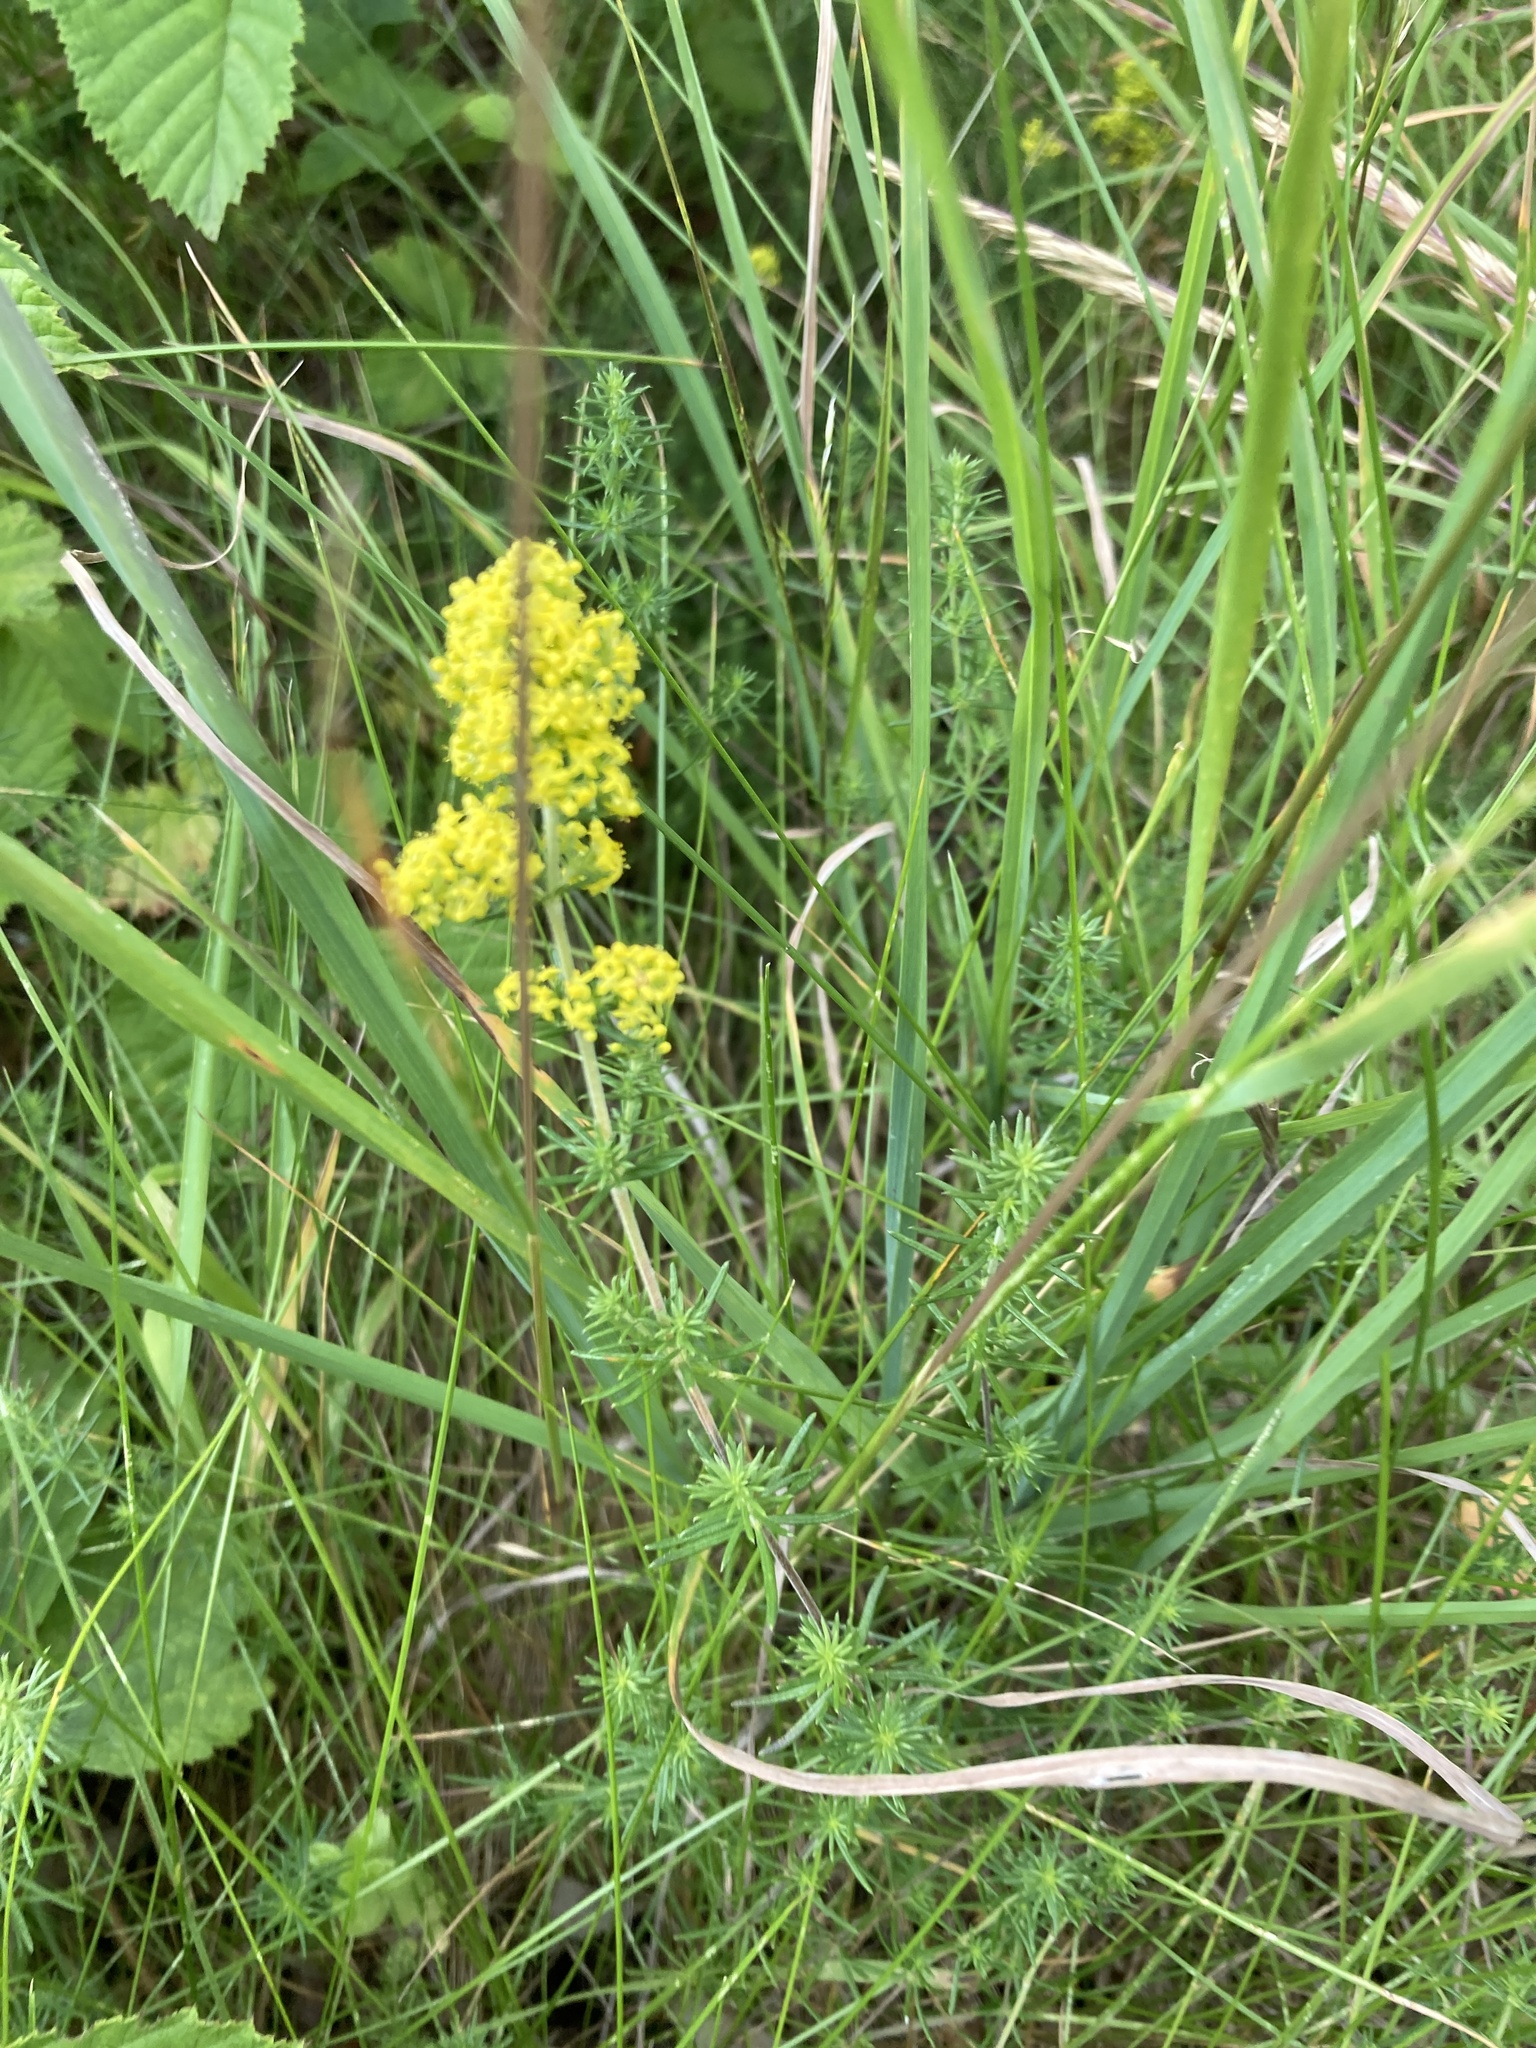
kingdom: Plantae
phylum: Tracheophyta
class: Magnoliopsida
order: Gentianales
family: Rubiaceae
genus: Galium
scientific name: Galium verum
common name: Lady's bedstraw
